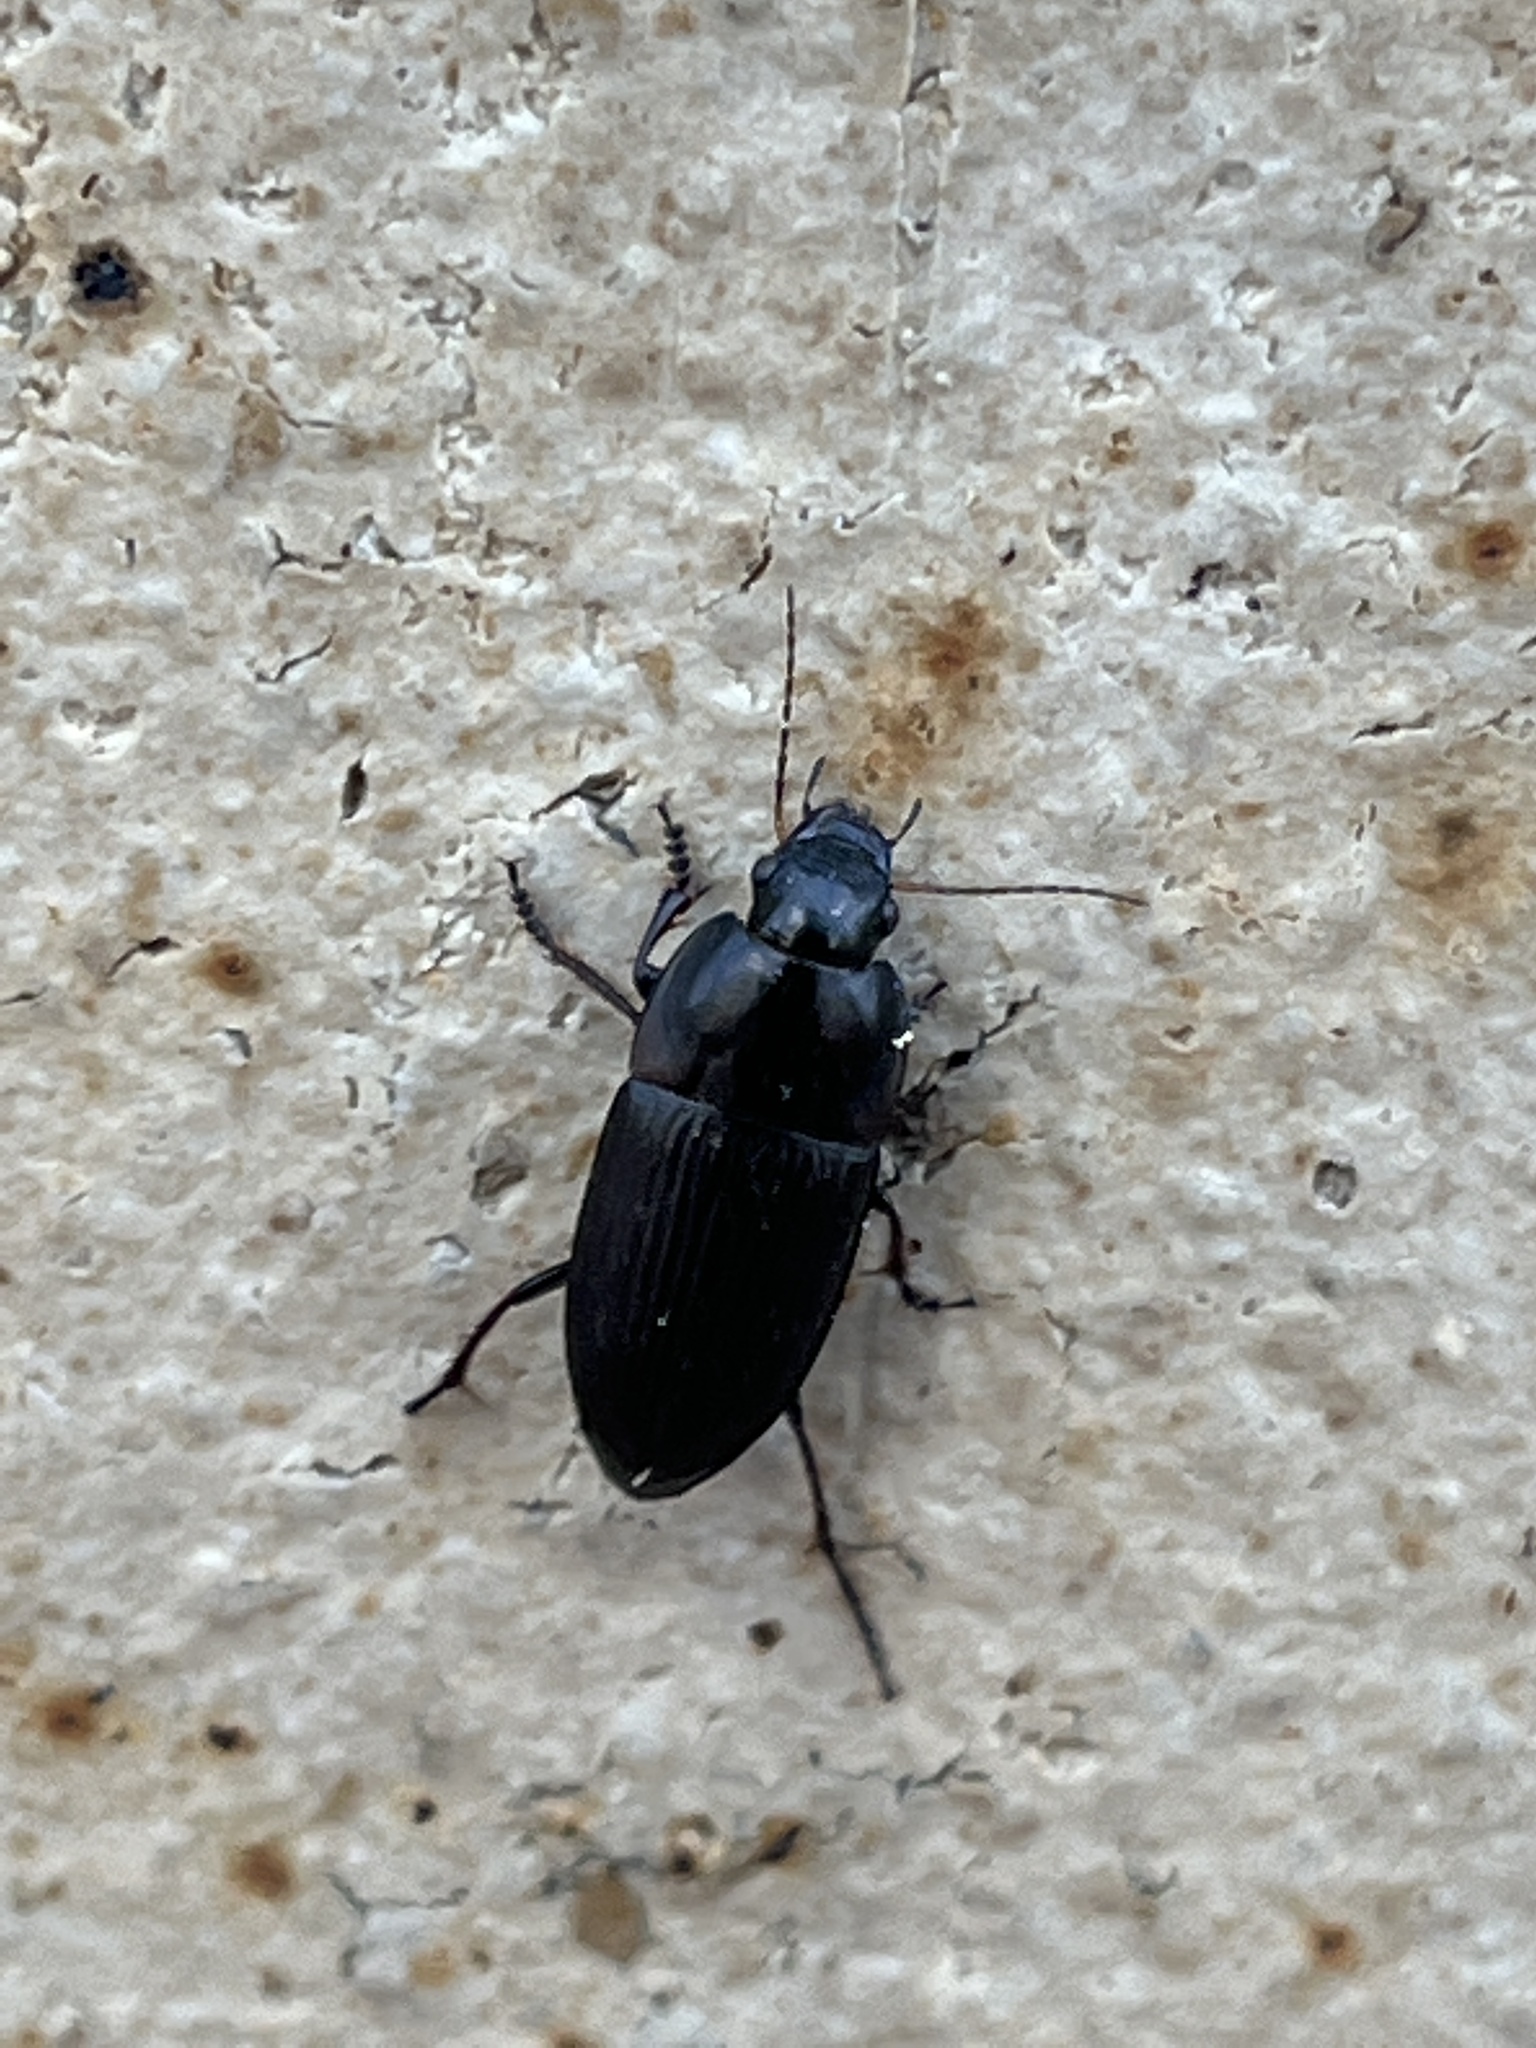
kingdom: Animalia
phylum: Arthropoda
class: Insecta
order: Coleoptera
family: Carabidae
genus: Anisodactylus
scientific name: Anisodactylus rusticus
